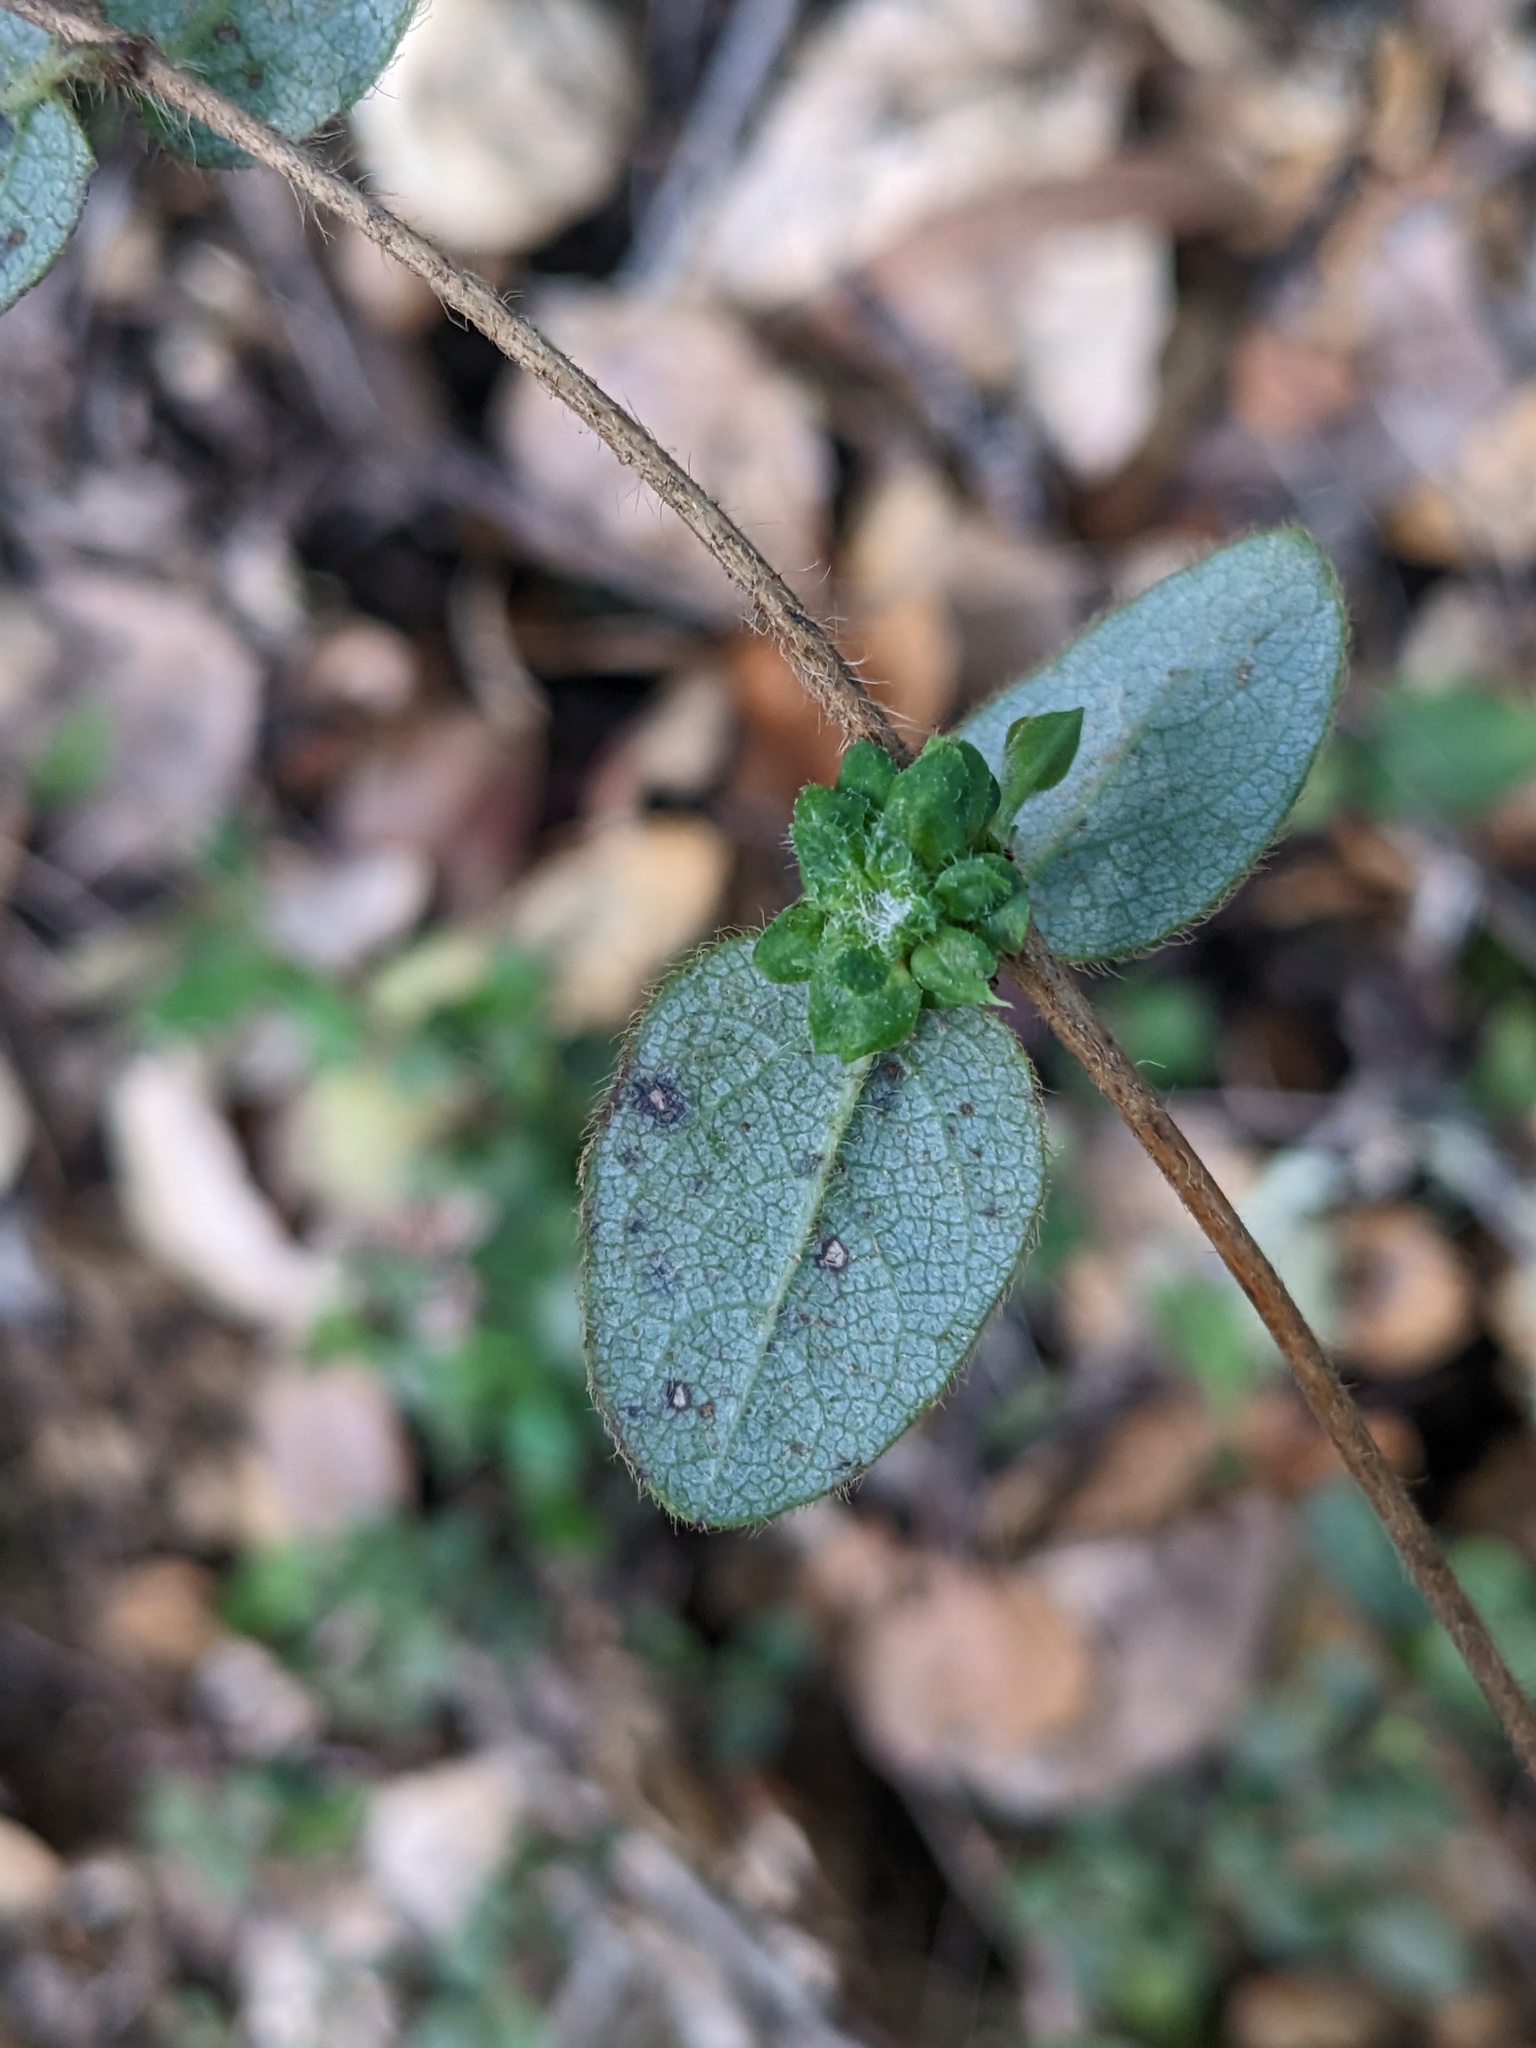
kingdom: Animalia
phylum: Arthropoda
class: Insecta
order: Diptera
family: Cecidomyiidae
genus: Lonicerae
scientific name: Lonicerae russoi
